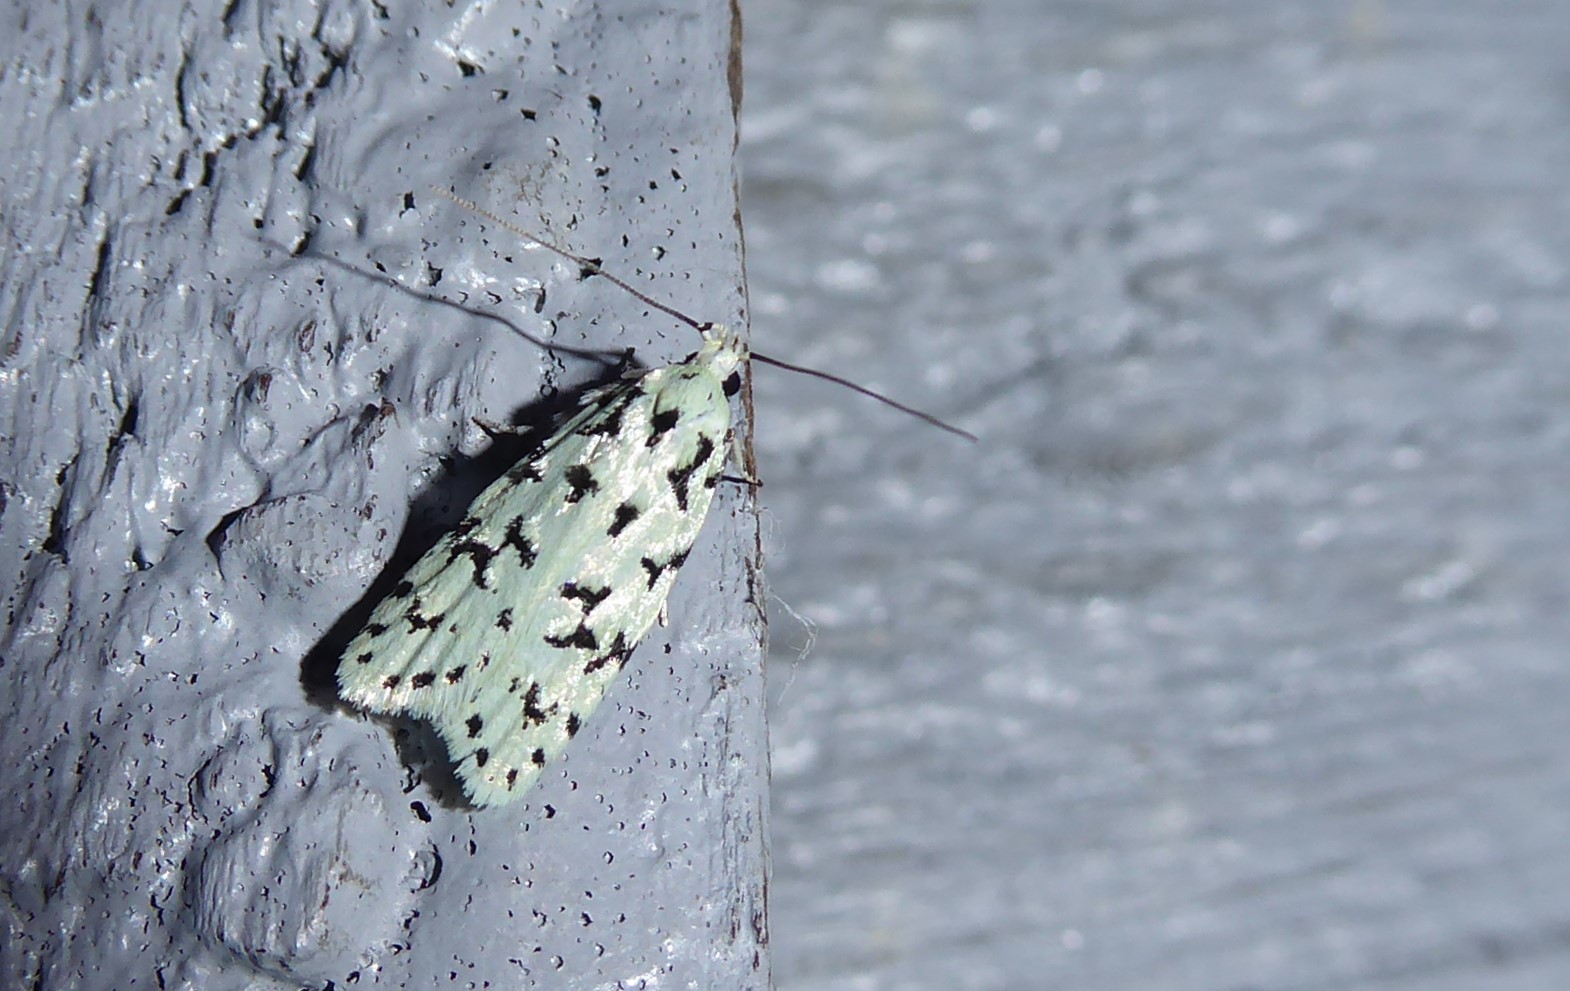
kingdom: Animalia
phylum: Arthropoda
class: Insecta
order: Lepidoptera
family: Oecophoridae
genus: Izatha
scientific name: Izatha huttoni
